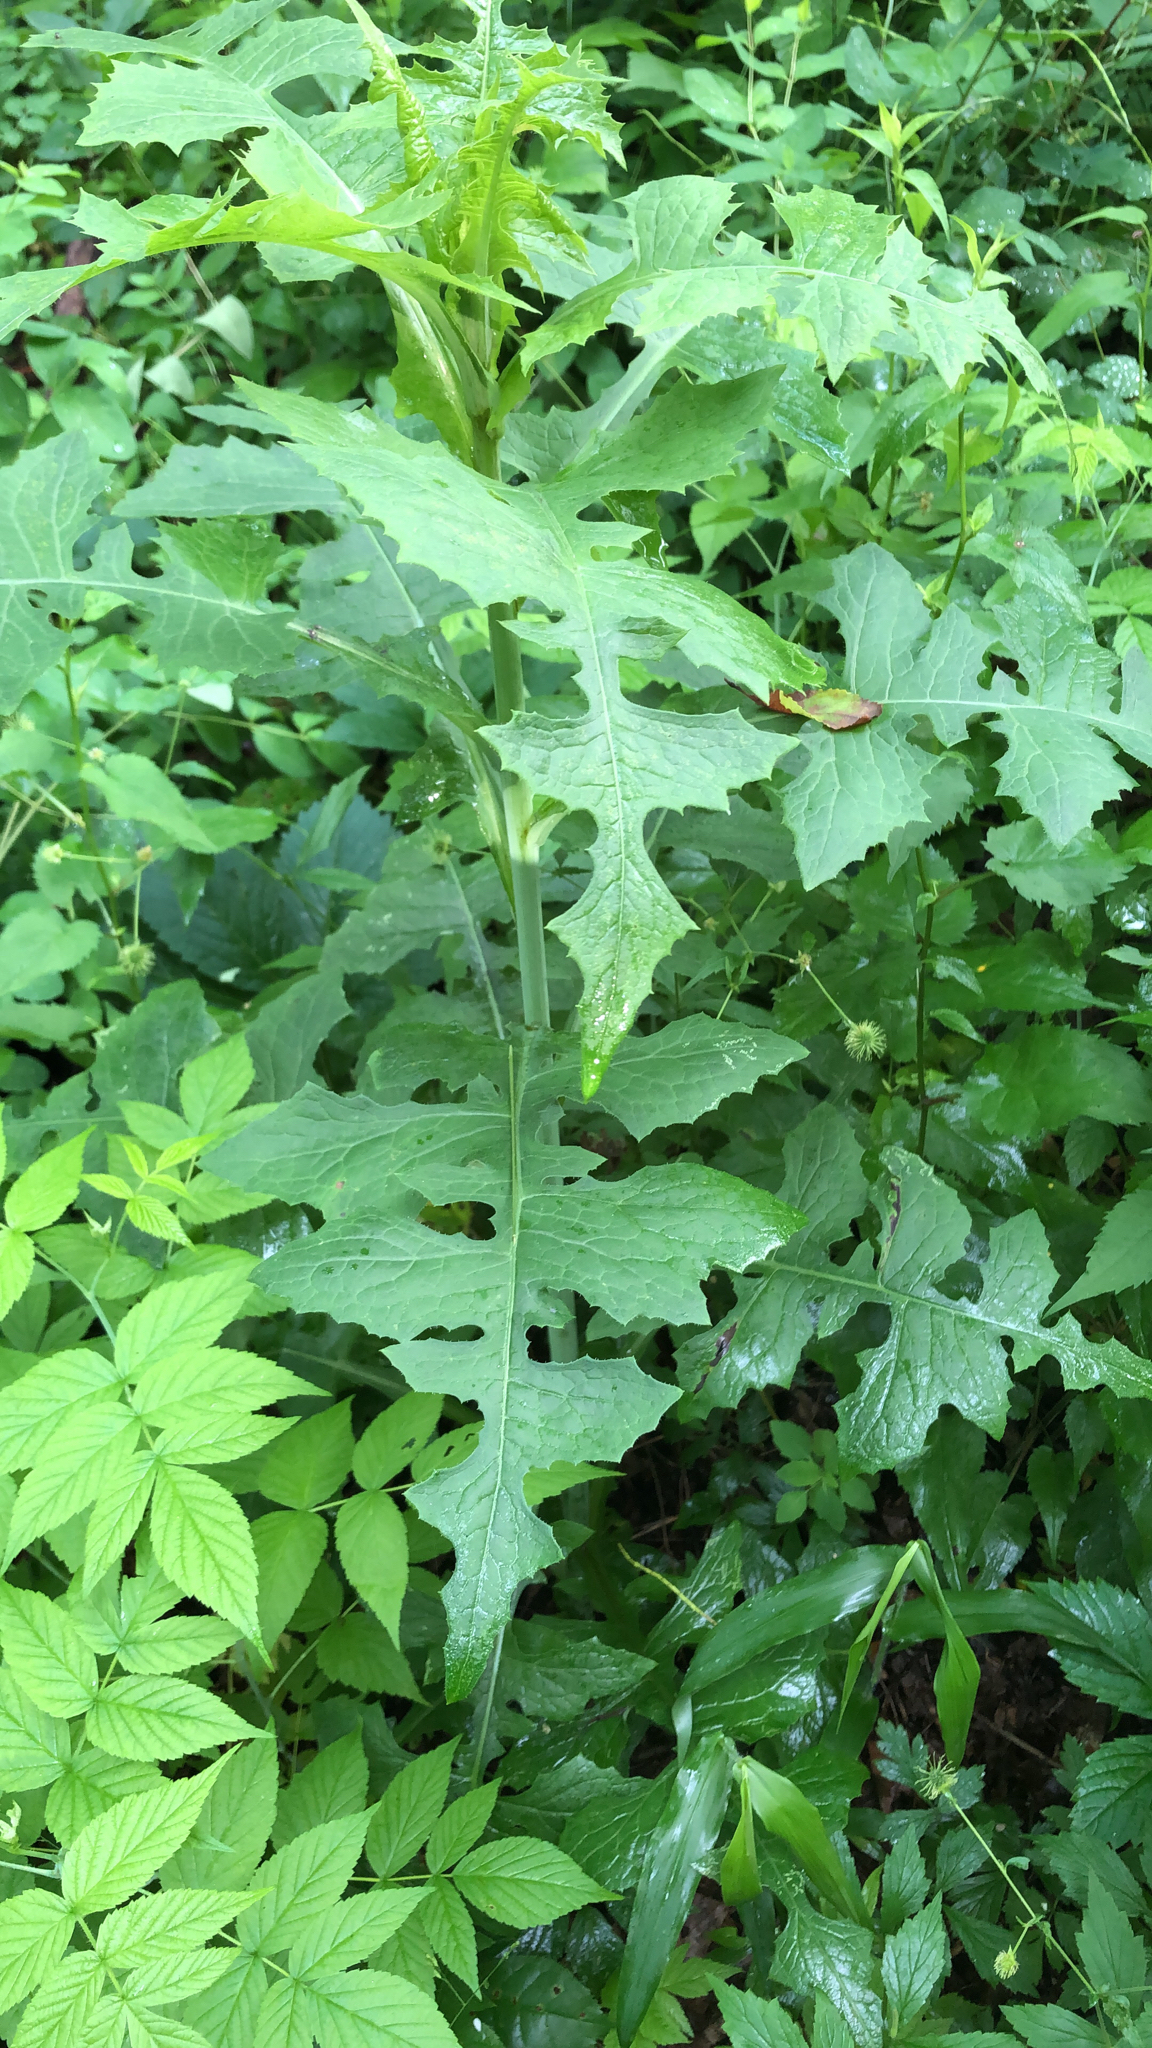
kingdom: Plantae
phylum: Tracheophyta
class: Magnoliopsida
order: Asterales
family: Asteraceae
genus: Lactuca
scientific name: Lactuca biennis
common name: Blue wood lettuce
